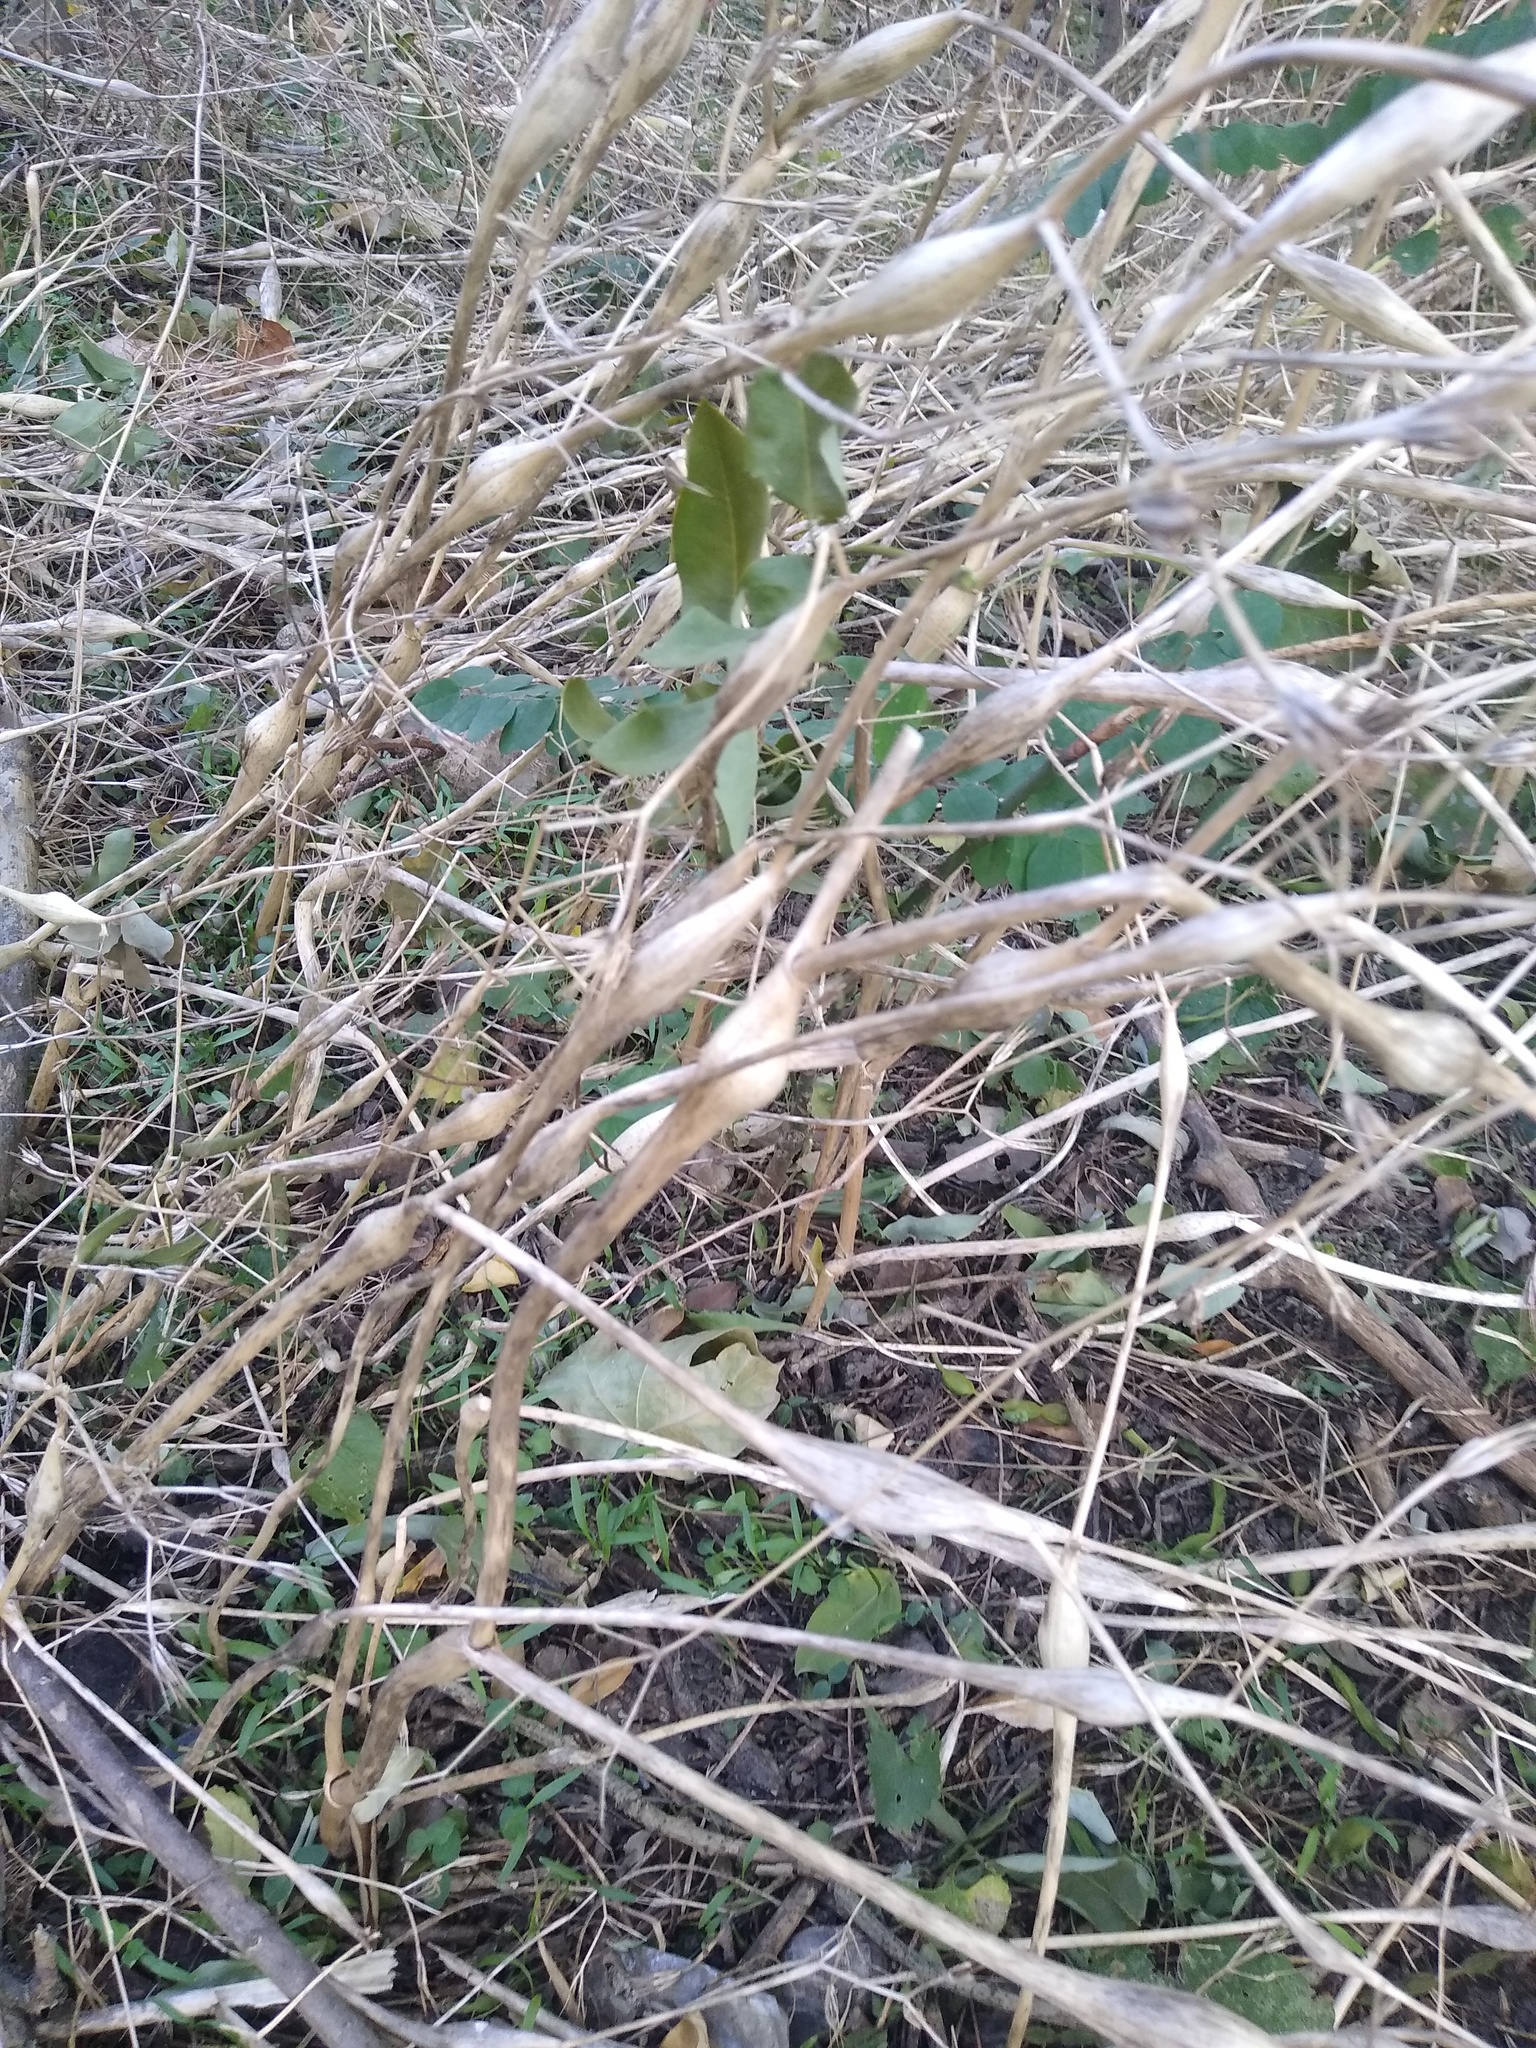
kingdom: Plantae
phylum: Tracheophyta
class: Magnoliopsida
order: Apiales
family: Apiaceae
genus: Chaerophyllum
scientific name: Chaerophyllum nodosum
